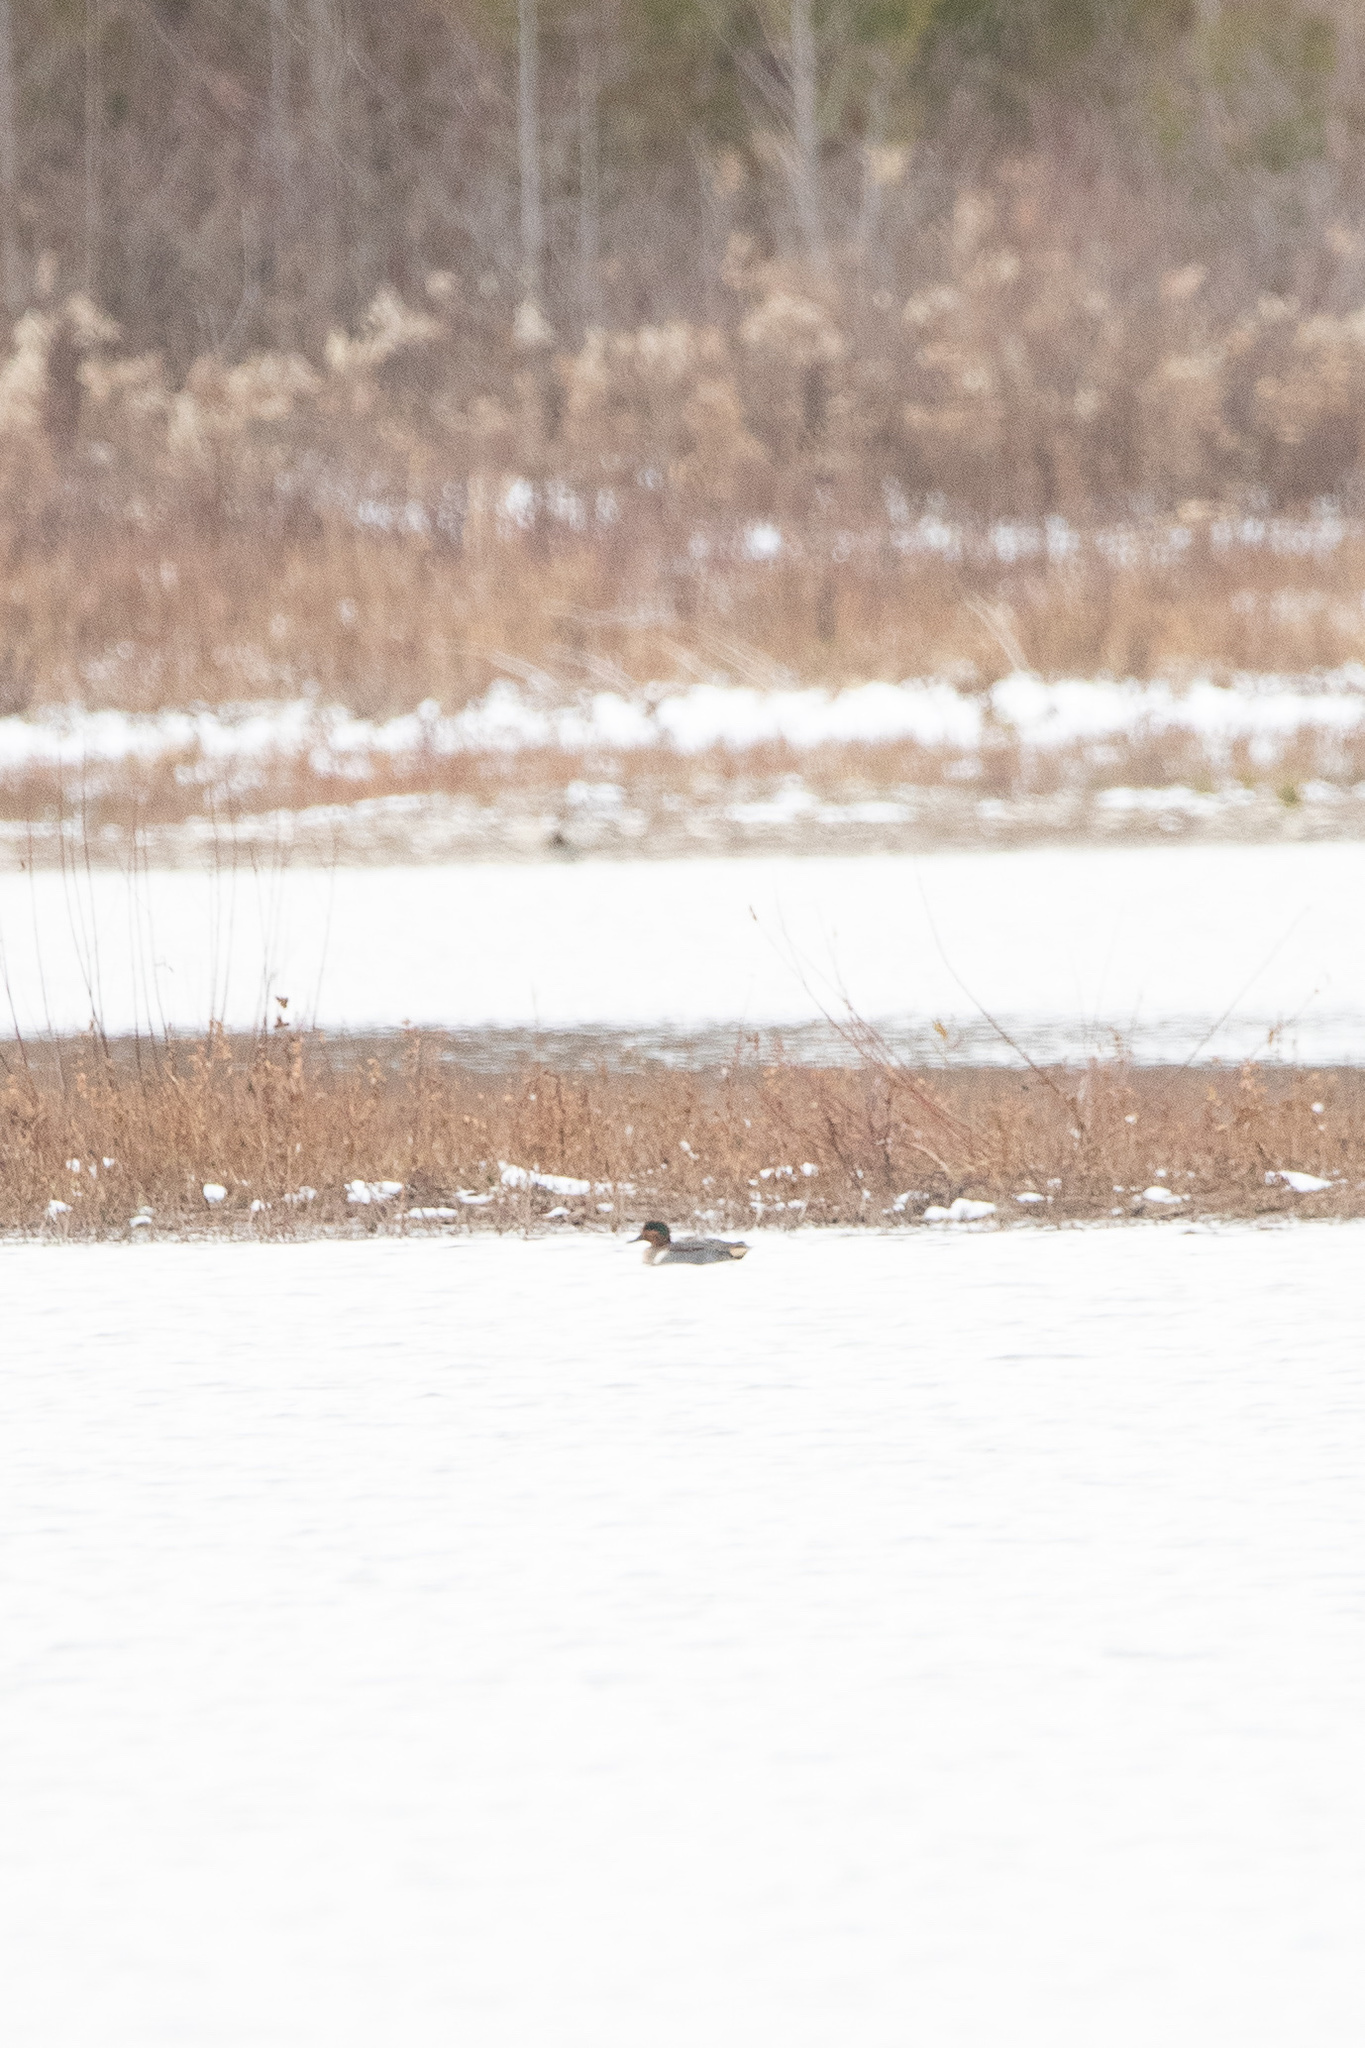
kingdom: Animalia
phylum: Chordata
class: Aves
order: Anseriformes
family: Anatidae
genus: Anas
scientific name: Anas crecca
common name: Eurasian teal
